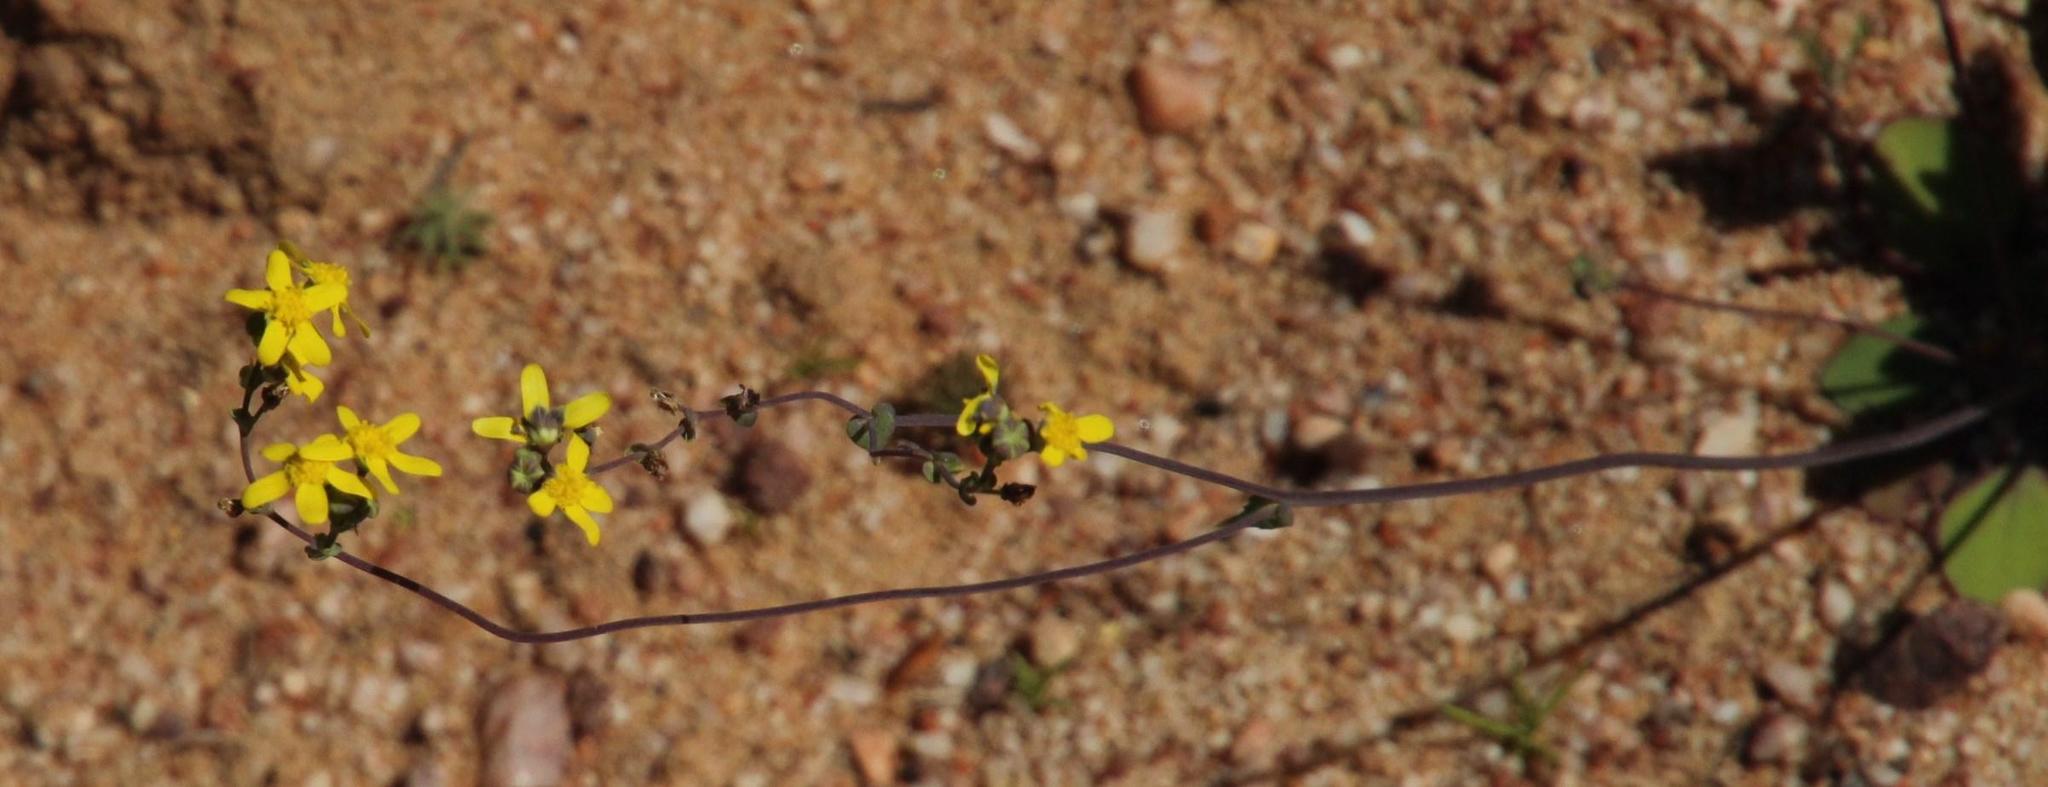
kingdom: Plantae
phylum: Tracheophyta
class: Magnoliopsida
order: Asterales
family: Asteraceae
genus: Gymnodiscus
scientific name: Gymnodiscus capillaris
